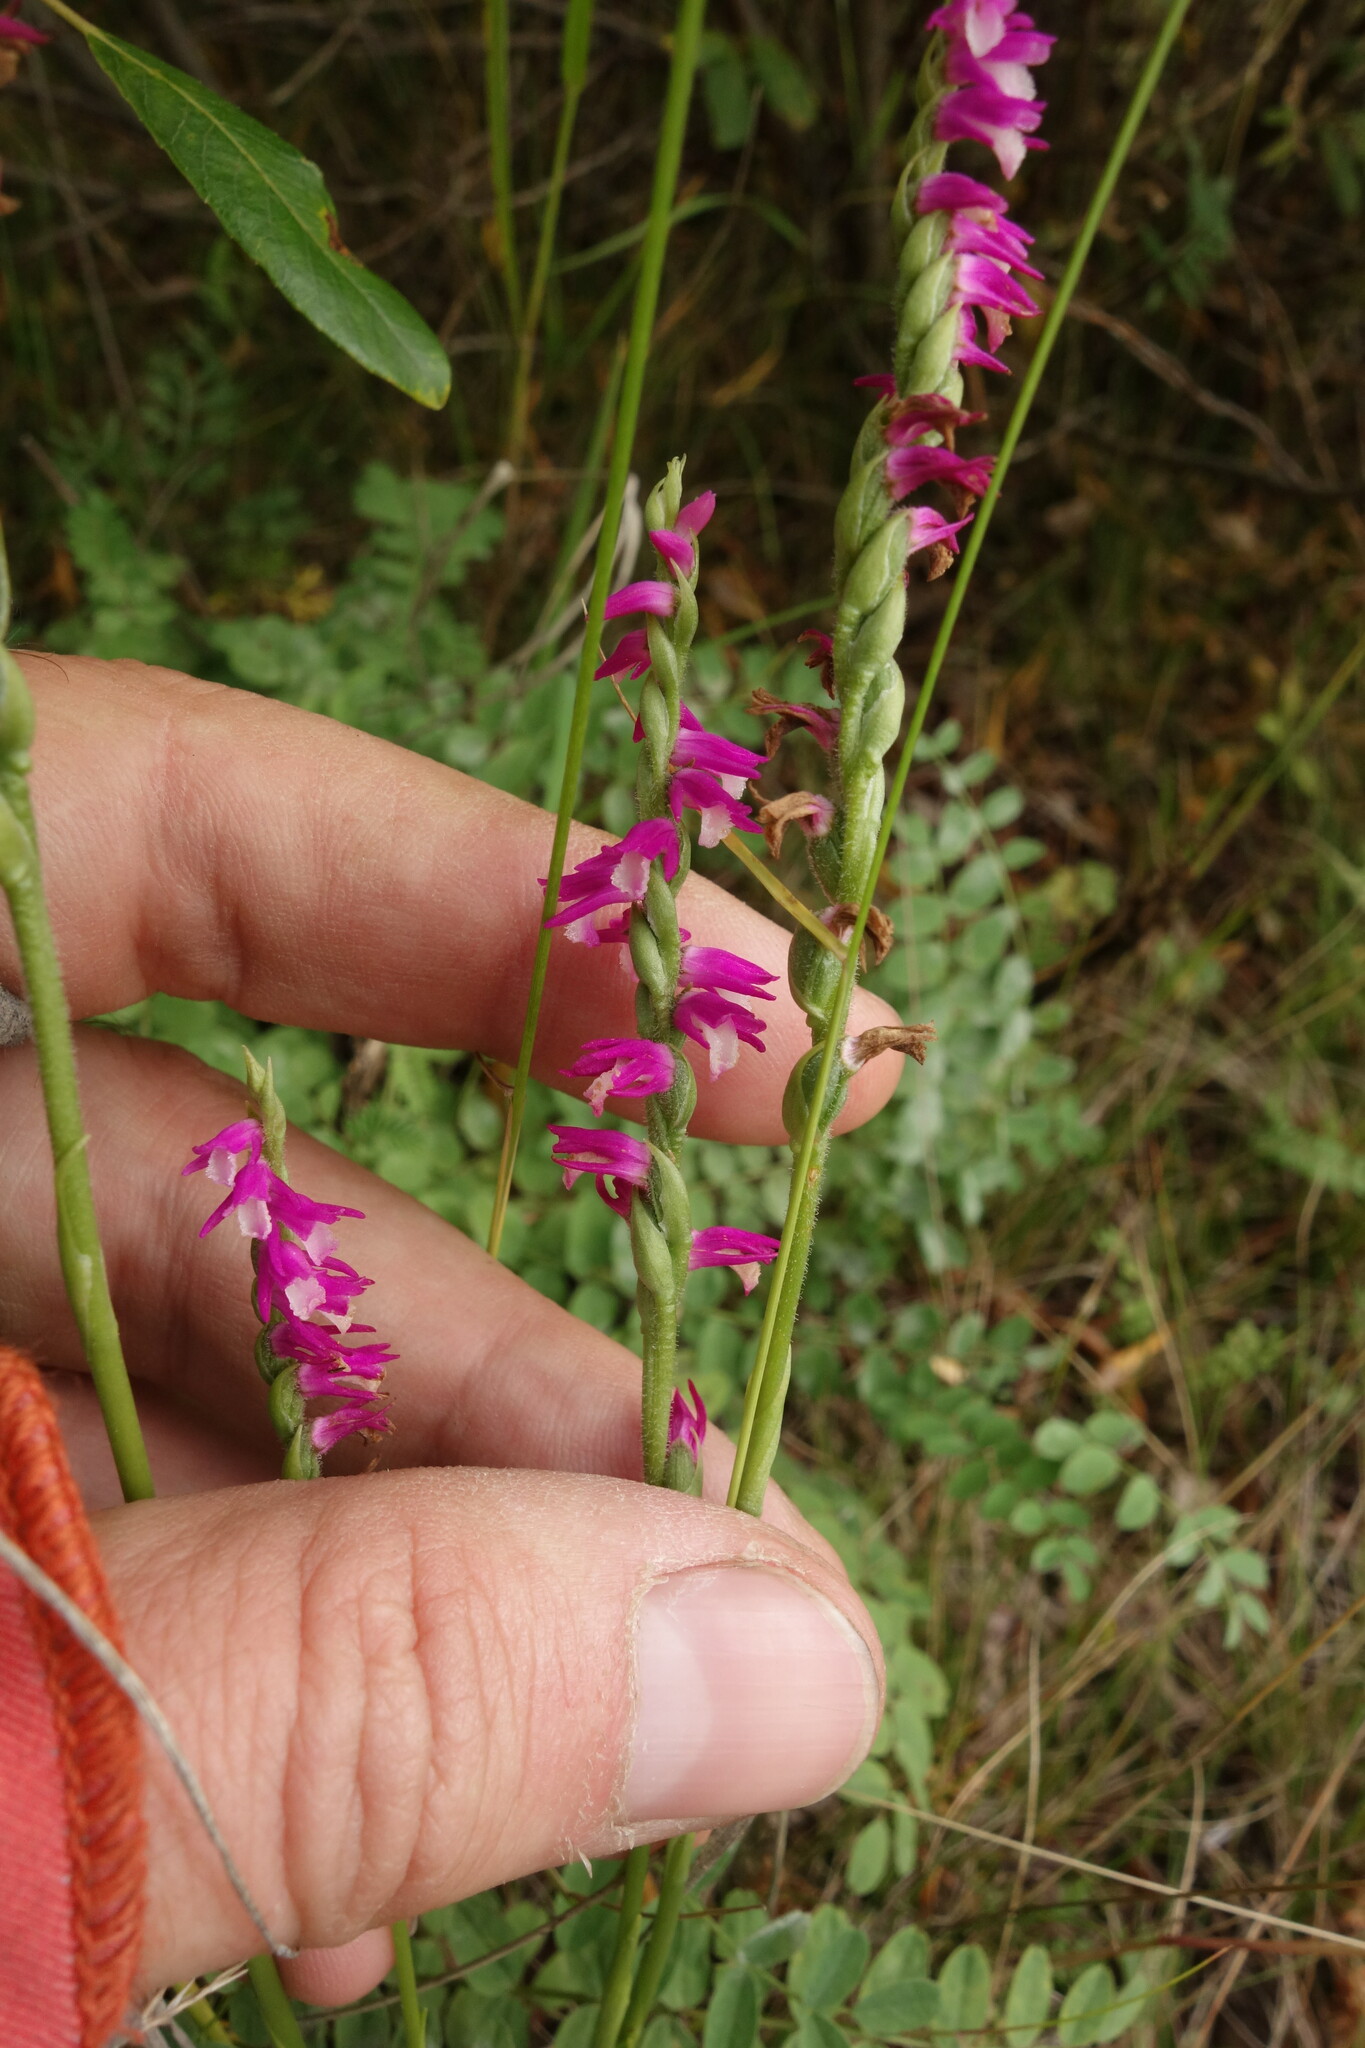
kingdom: Plantae
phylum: Tracheophyta
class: Liliopsida
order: Asparagales
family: Orchidaceae
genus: Spiranthes
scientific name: Spiranthes australis
